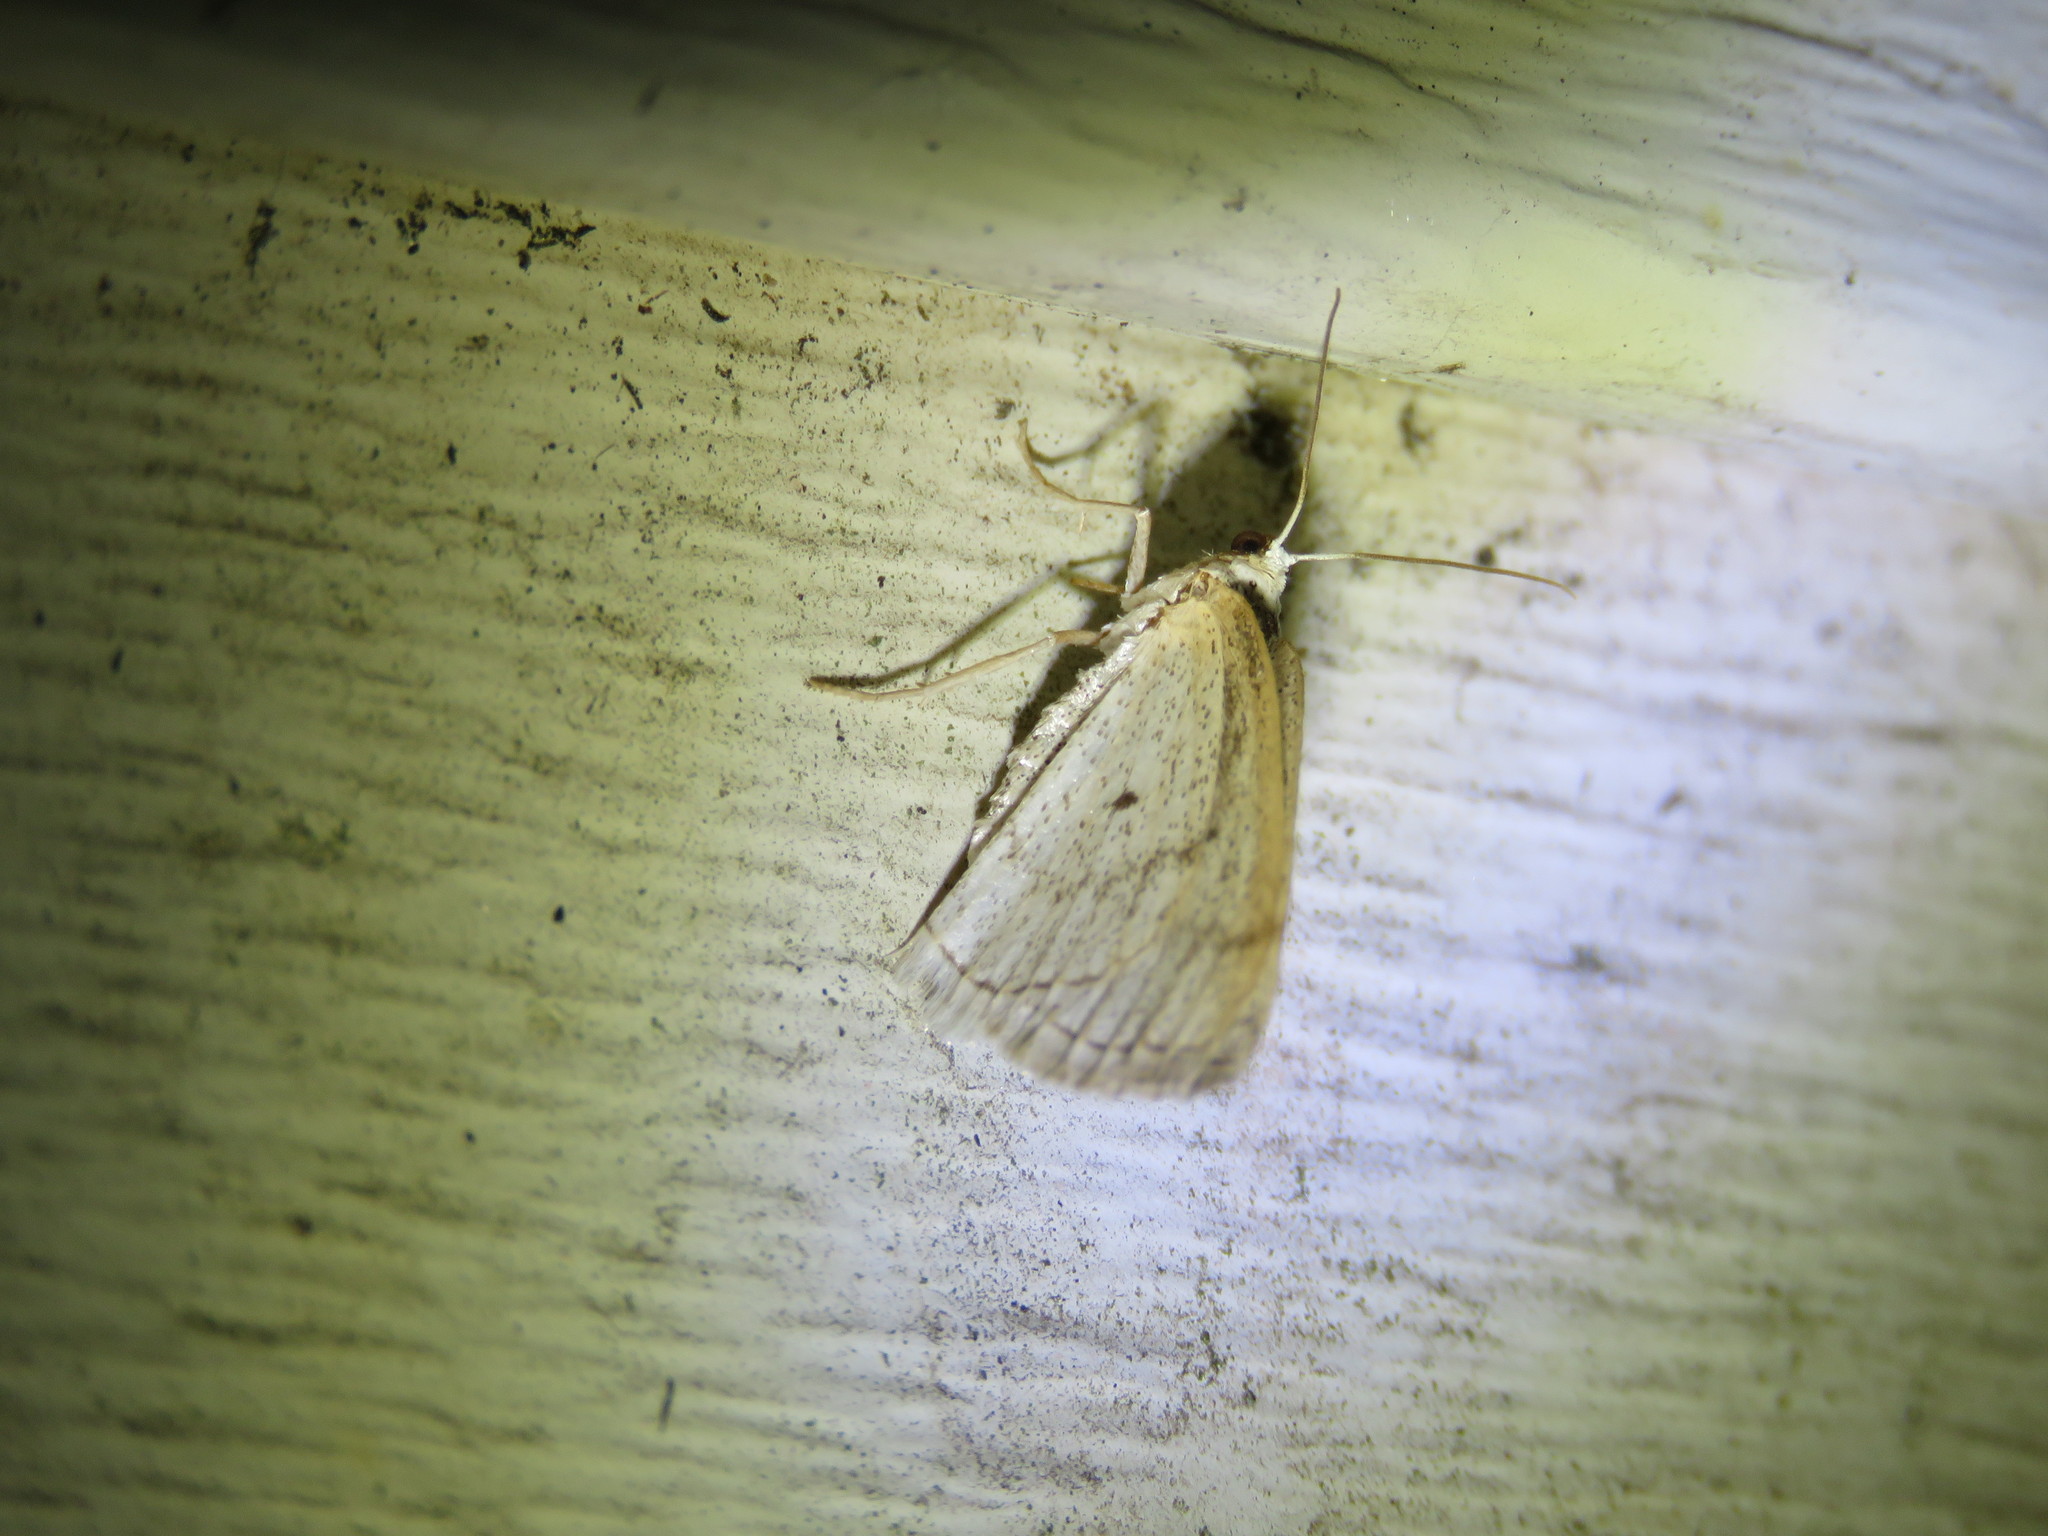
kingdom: Animalia
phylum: Arthropoda
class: Insecta
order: Lepidoptera
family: Geometridae
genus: Lomographa
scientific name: Lomographa glomeraria
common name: Gray spring moth
